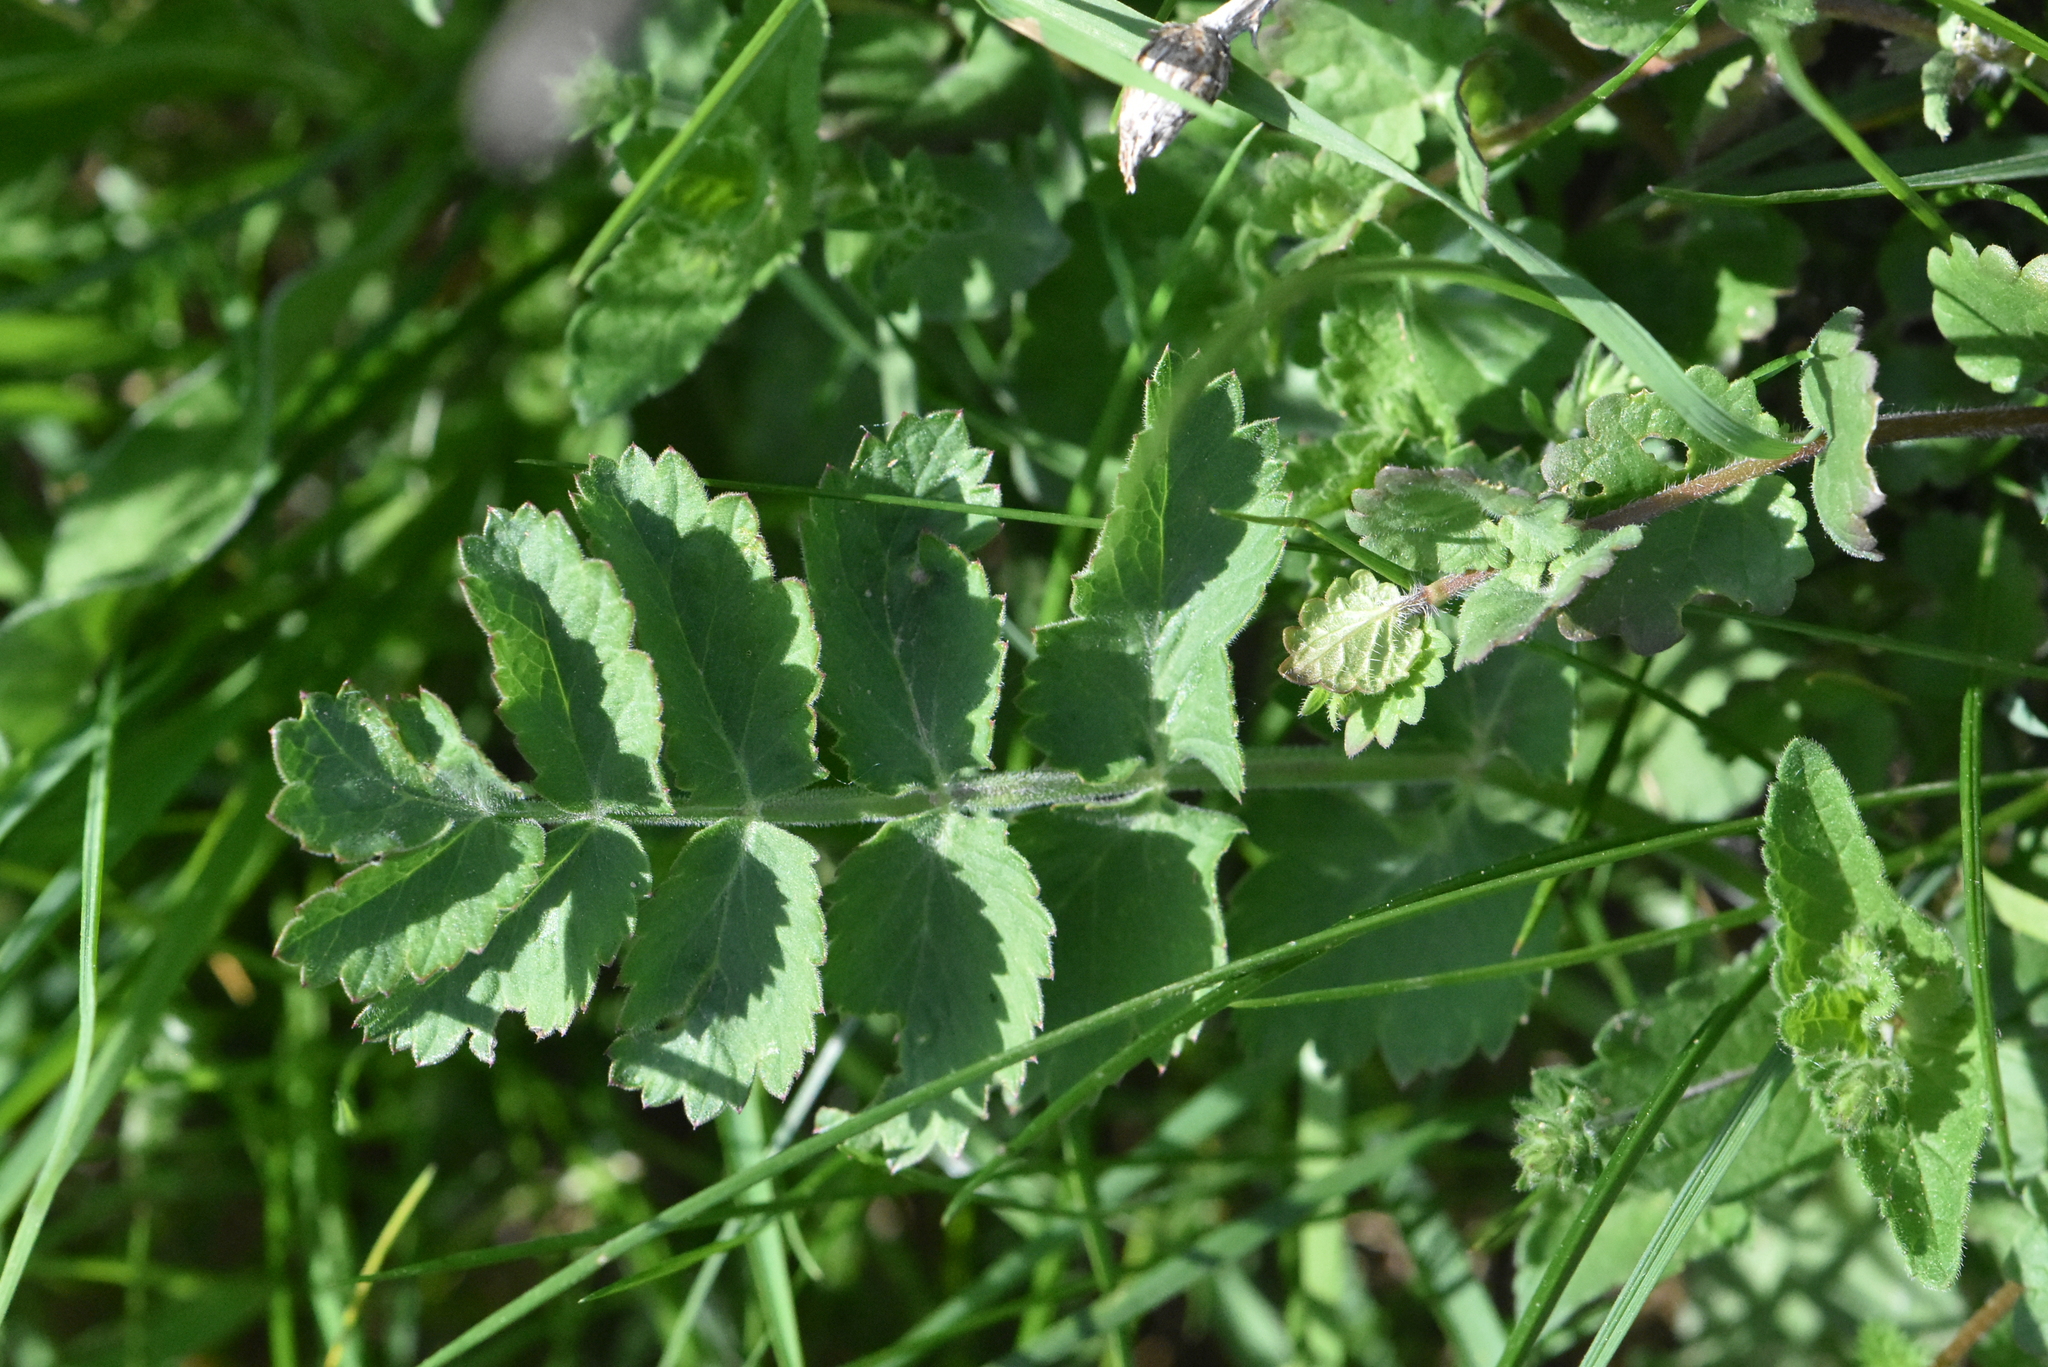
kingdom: Plantae
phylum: Tracheophyta
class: Magnoliopsida
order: Apiales
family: Apiaceae
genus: Pimpinella
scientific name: Pimpinella saxifraga
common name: Burnet-saxifrage
